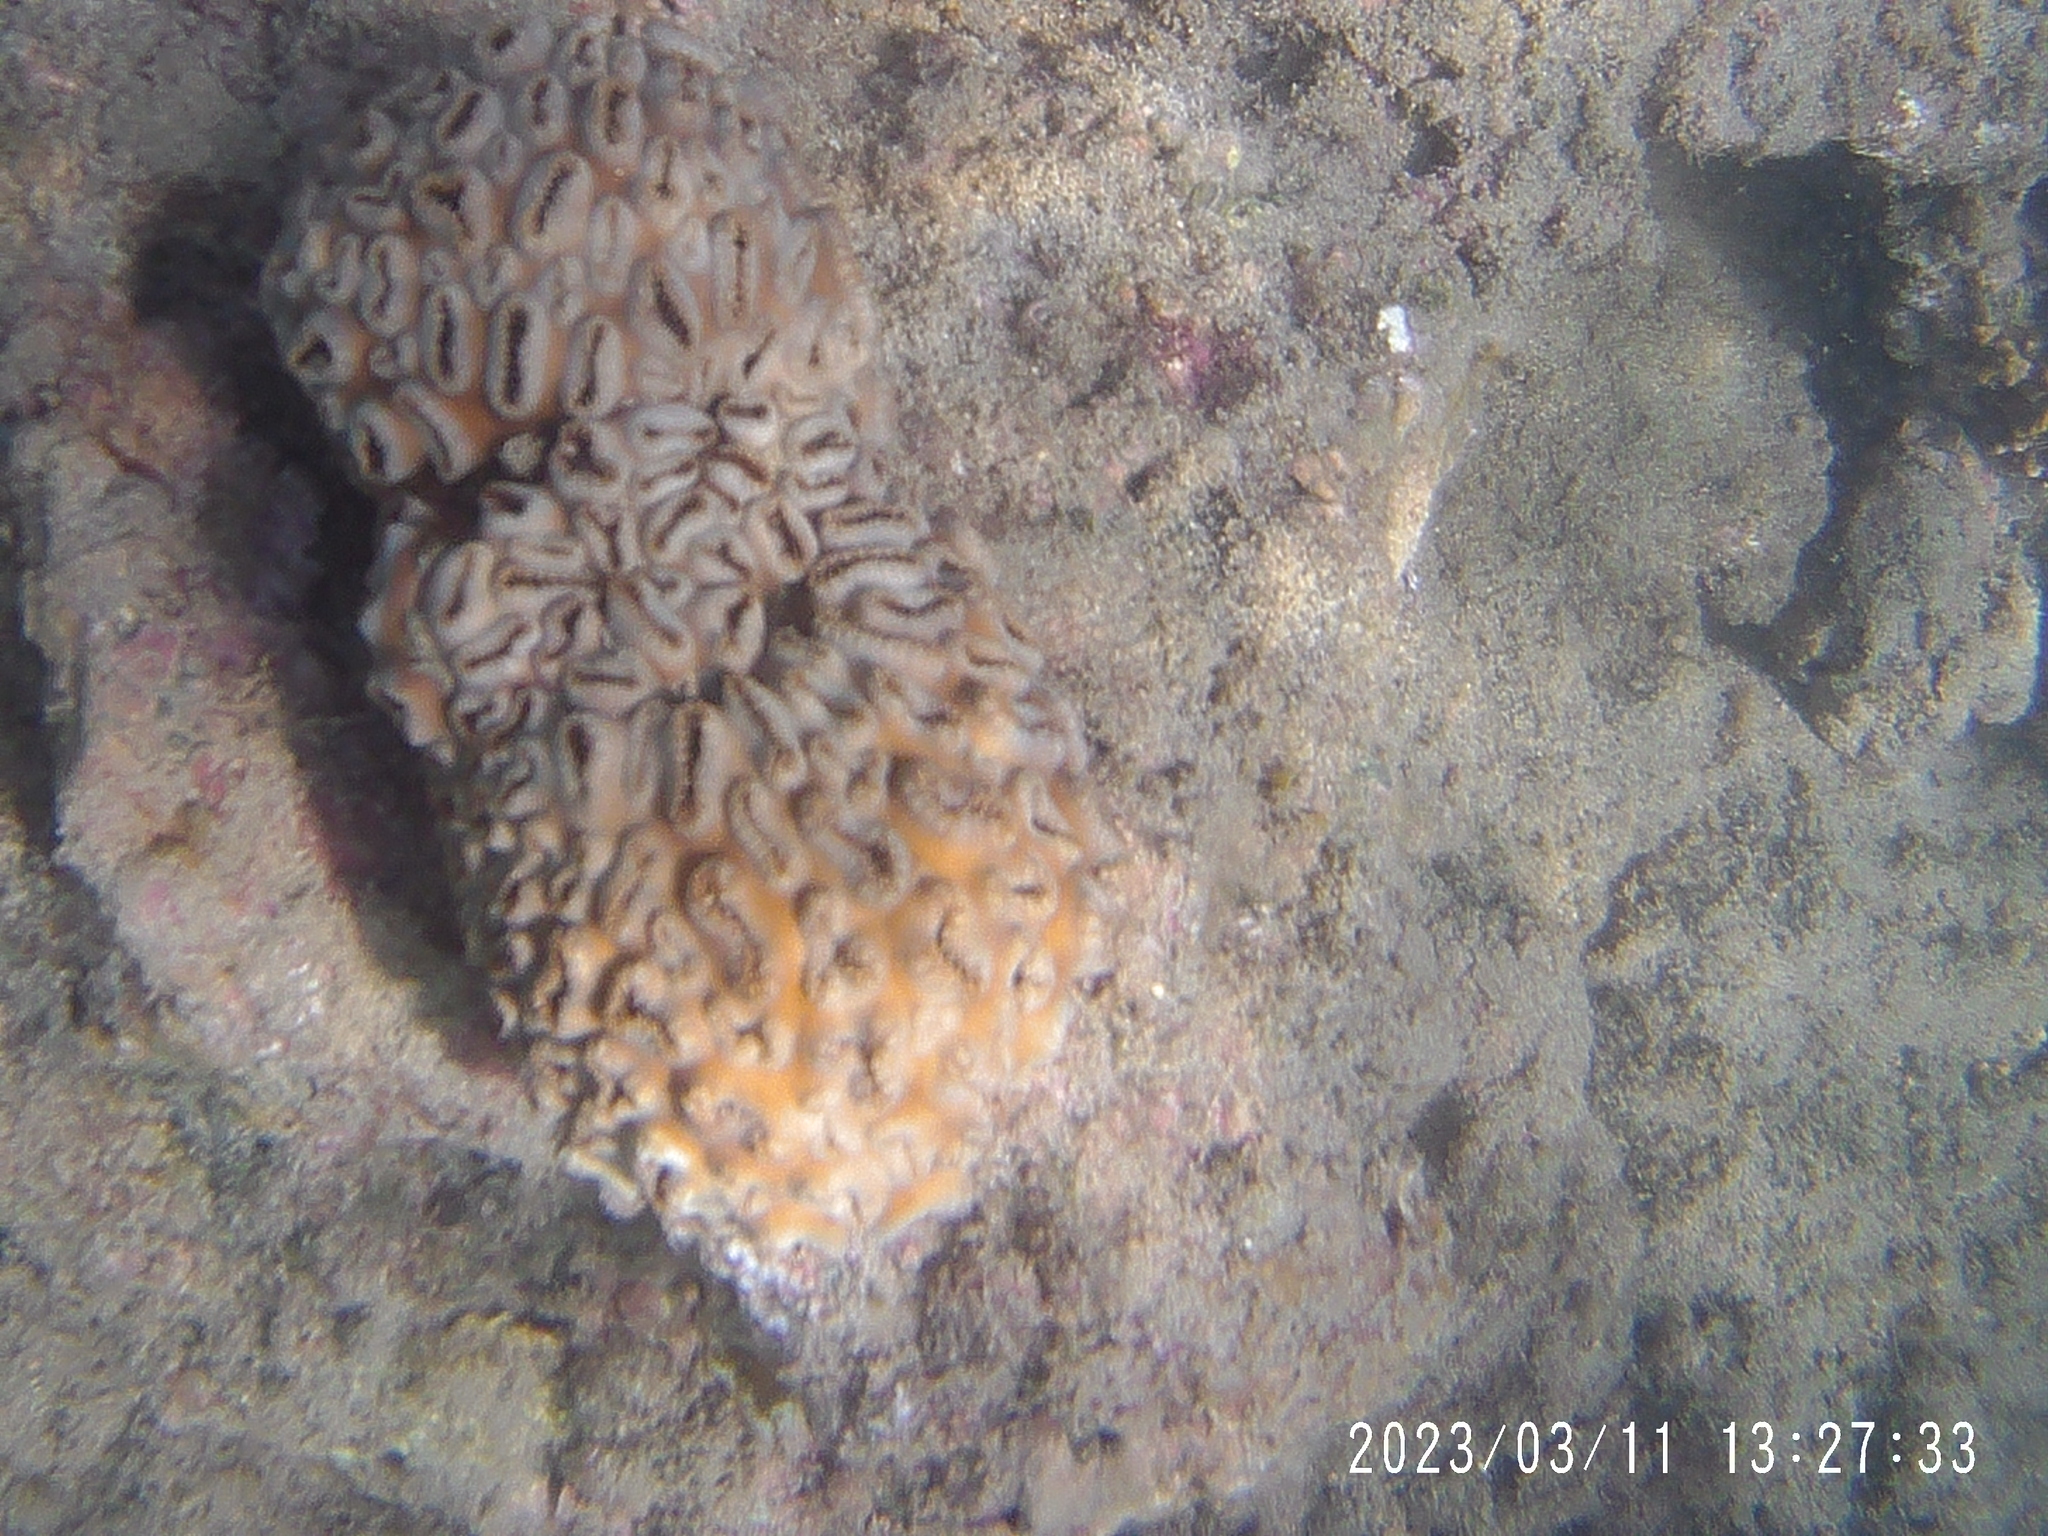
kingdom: Animalia
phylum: Cnidaria
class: Anthozoa
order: Zoantharia
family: Sphenopidae
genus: Palythoa
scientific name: Palythoa tuberculosa
